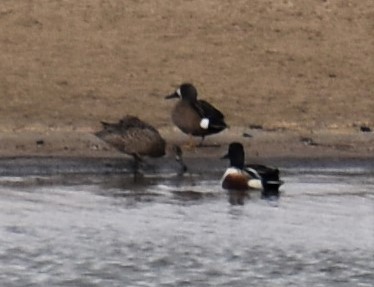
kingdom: Animalia
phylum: Chordata
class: Aves
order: Anseriformes
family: Anatidae
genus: Spatula
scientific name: Spatula clypeata
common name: Northern shoveler
